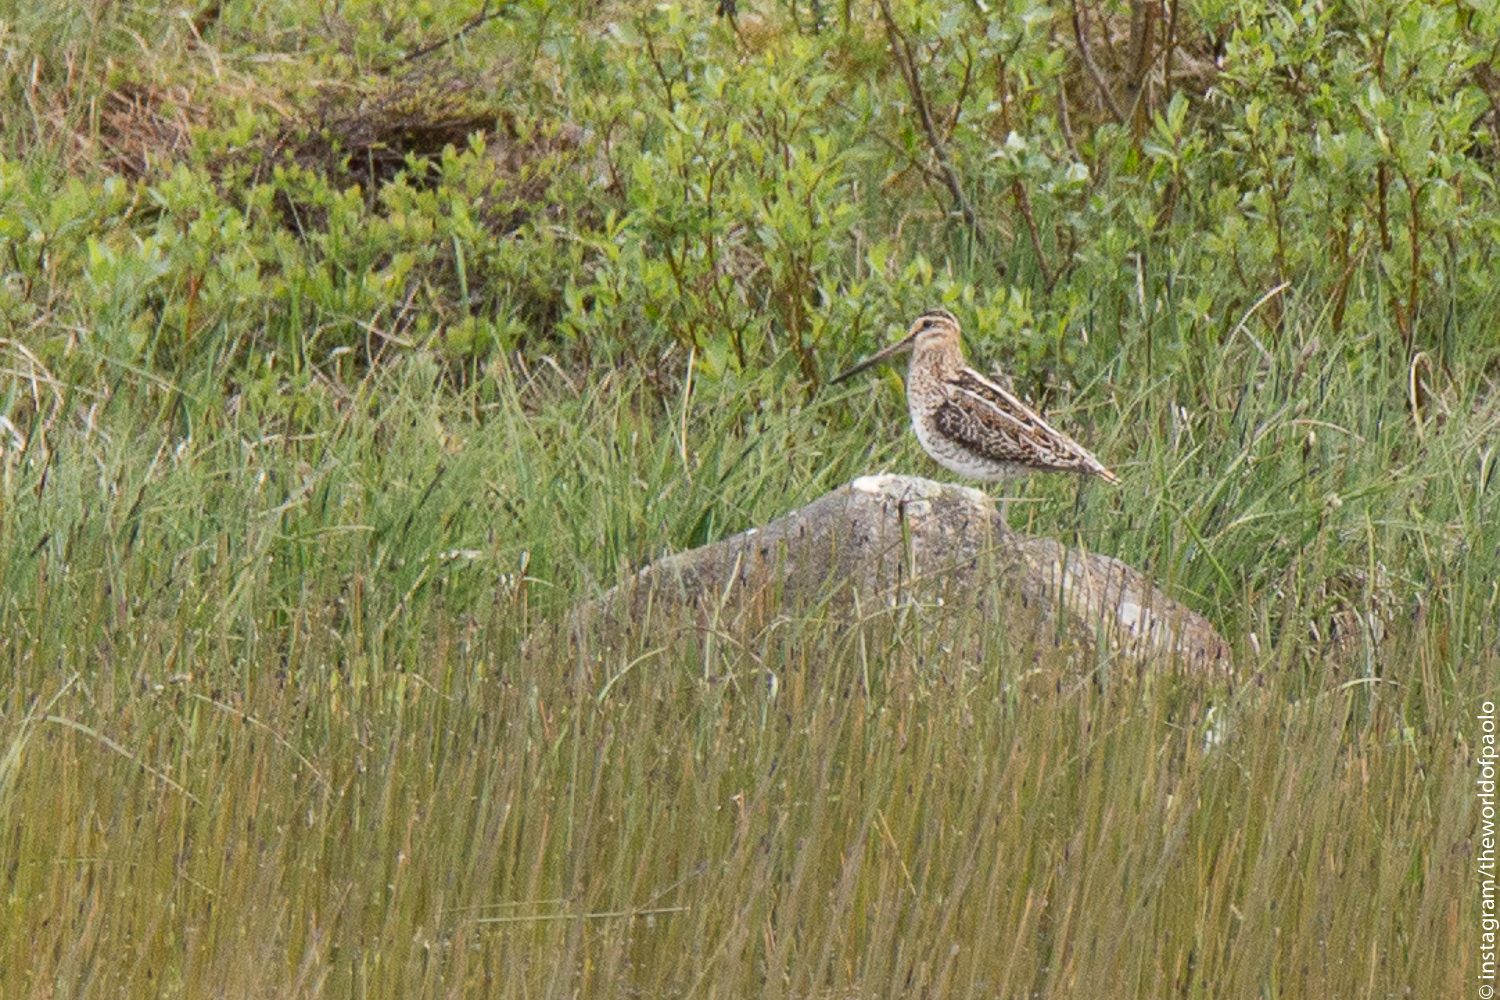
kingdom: Animalia
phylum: Chordata
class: Aves
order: Charadriiformes
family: Scolopacidae
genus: Gallinago
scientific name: Gallinago gallinago
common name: Common snipe
